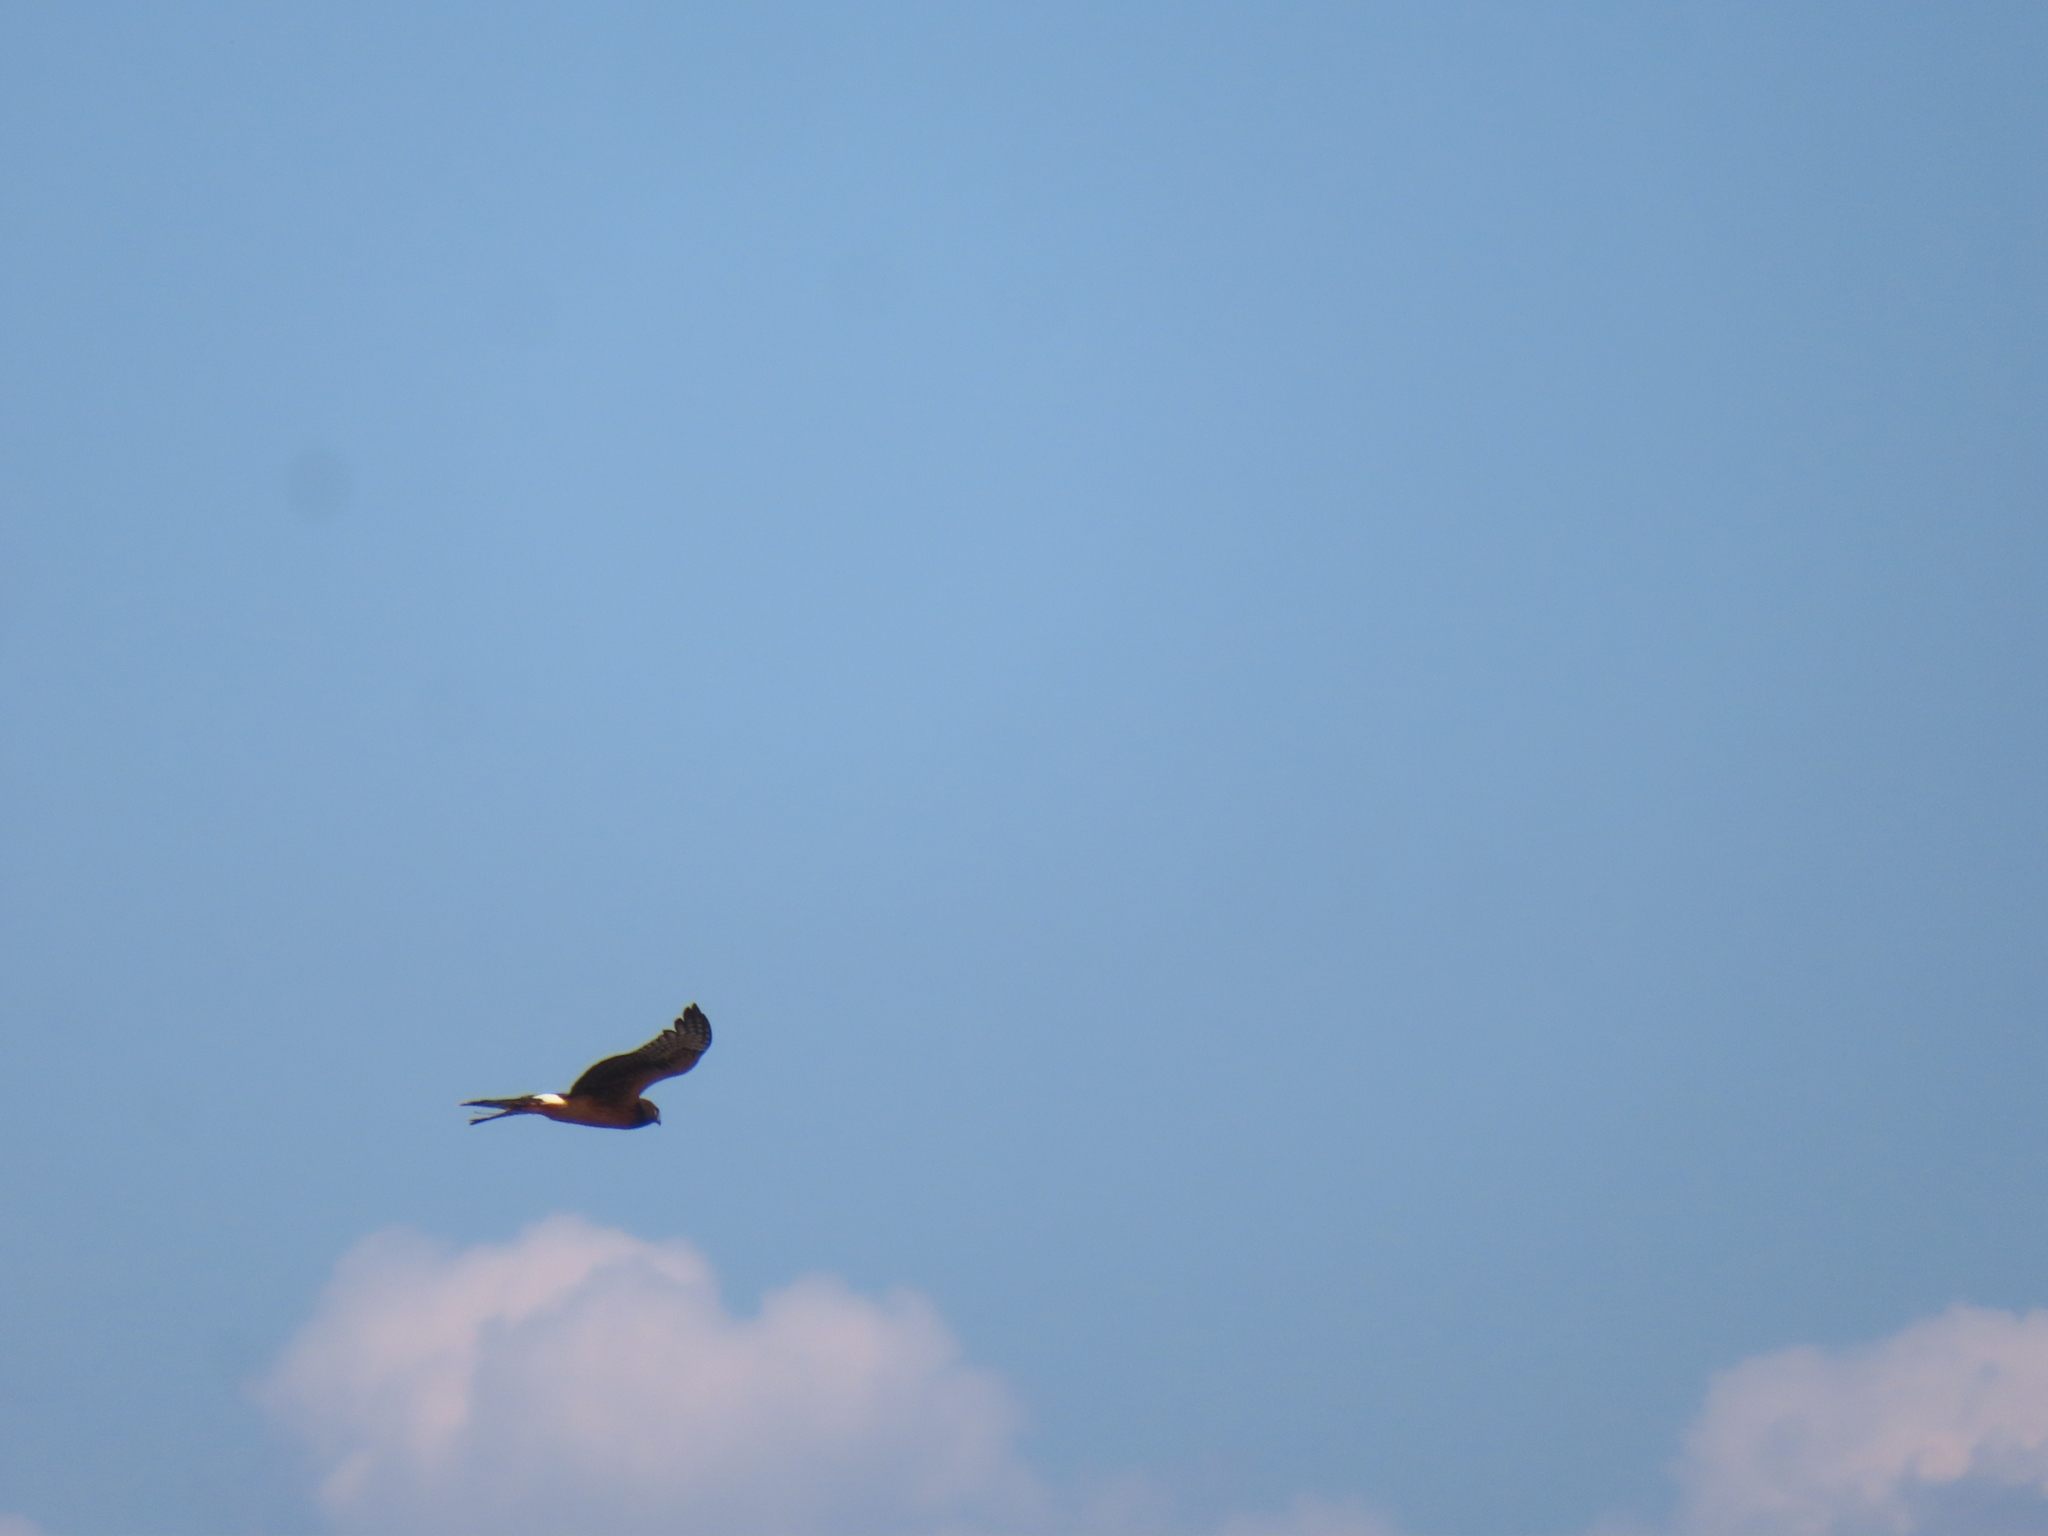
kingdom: Animalia
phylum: Chordata
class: Aves
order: Accipitriformes
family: Accipitridae
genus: Circus
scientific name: Circus cyaneus
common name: Hen harrier
